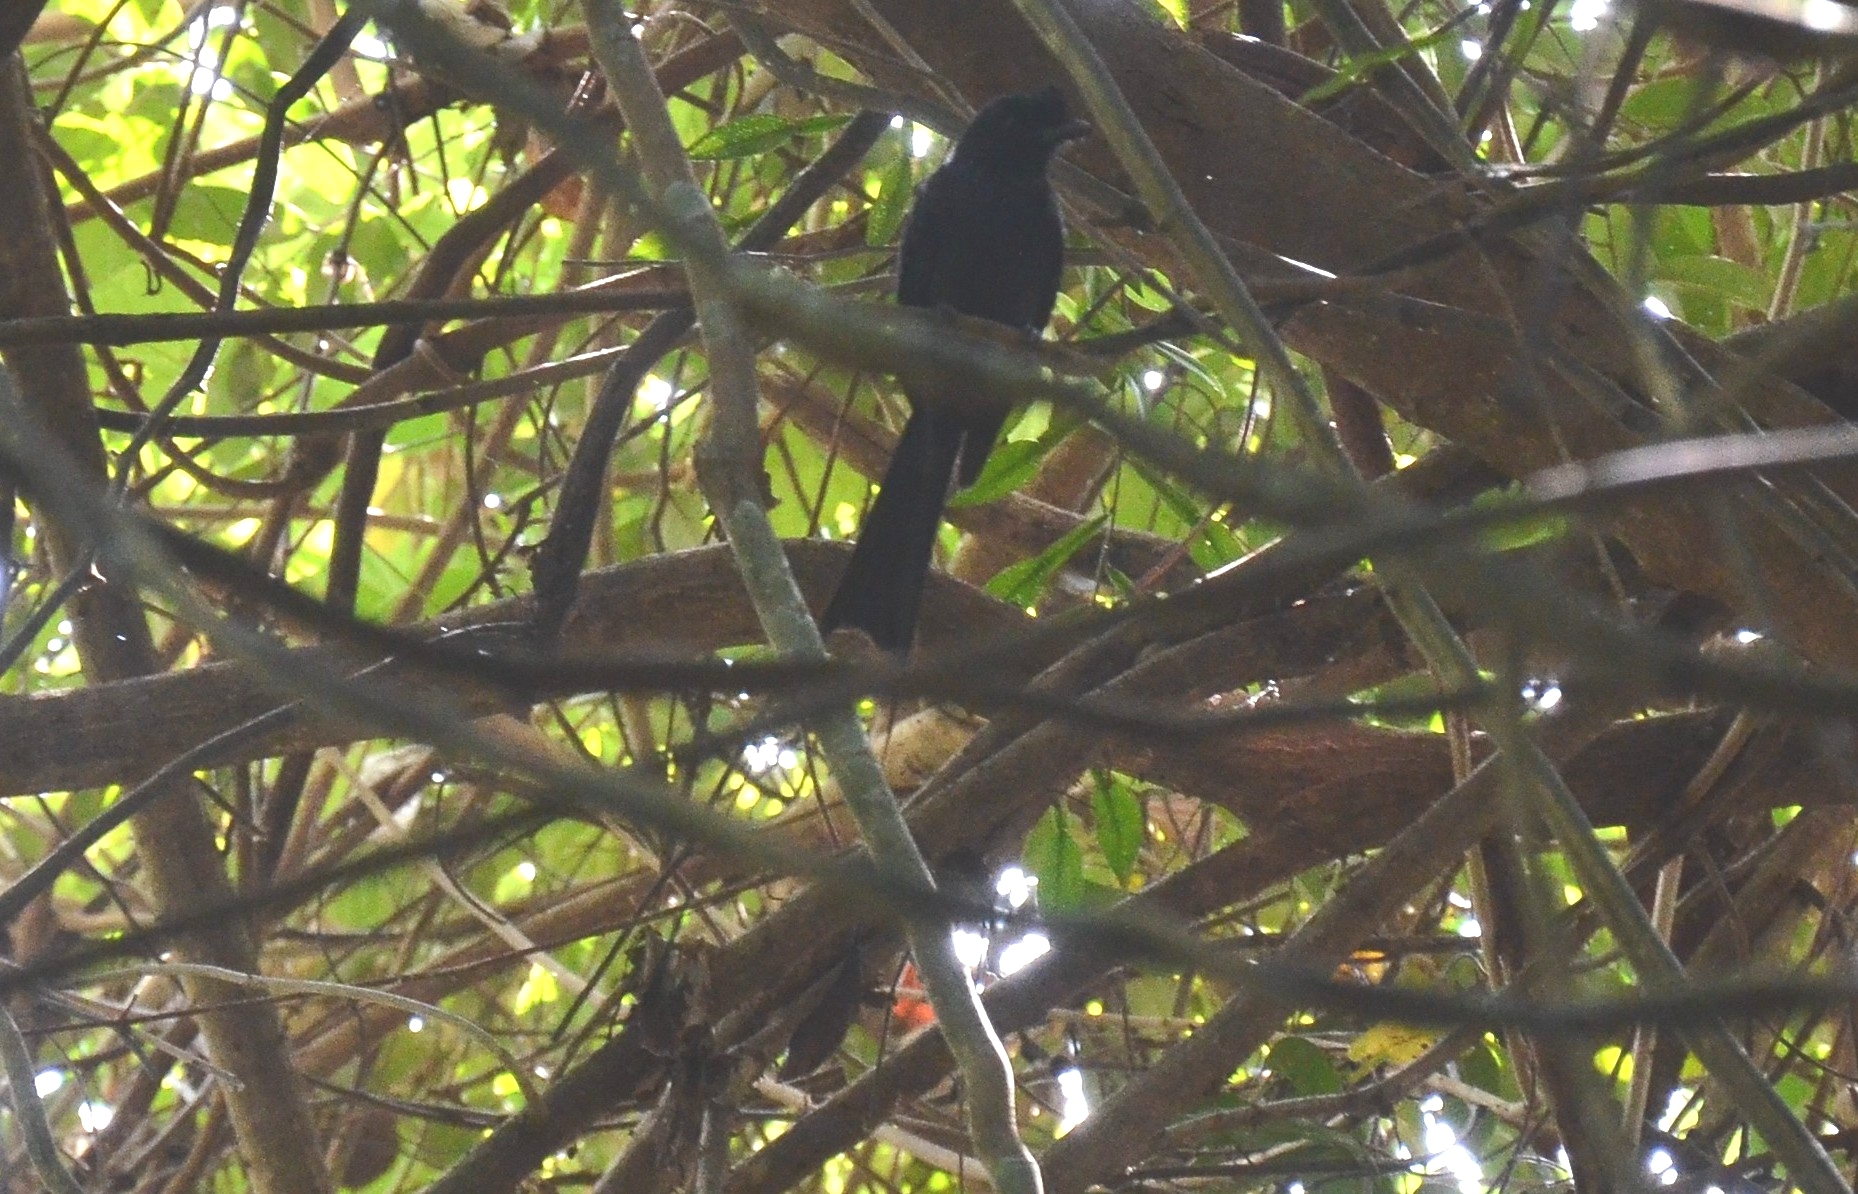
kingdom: Animalia
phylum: Chordata
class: Aves
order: Passeriformes
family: Dicruridae
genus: Dicrurus
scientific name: Dicrurus paradiseus
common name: Greater racket-tailed drongo
